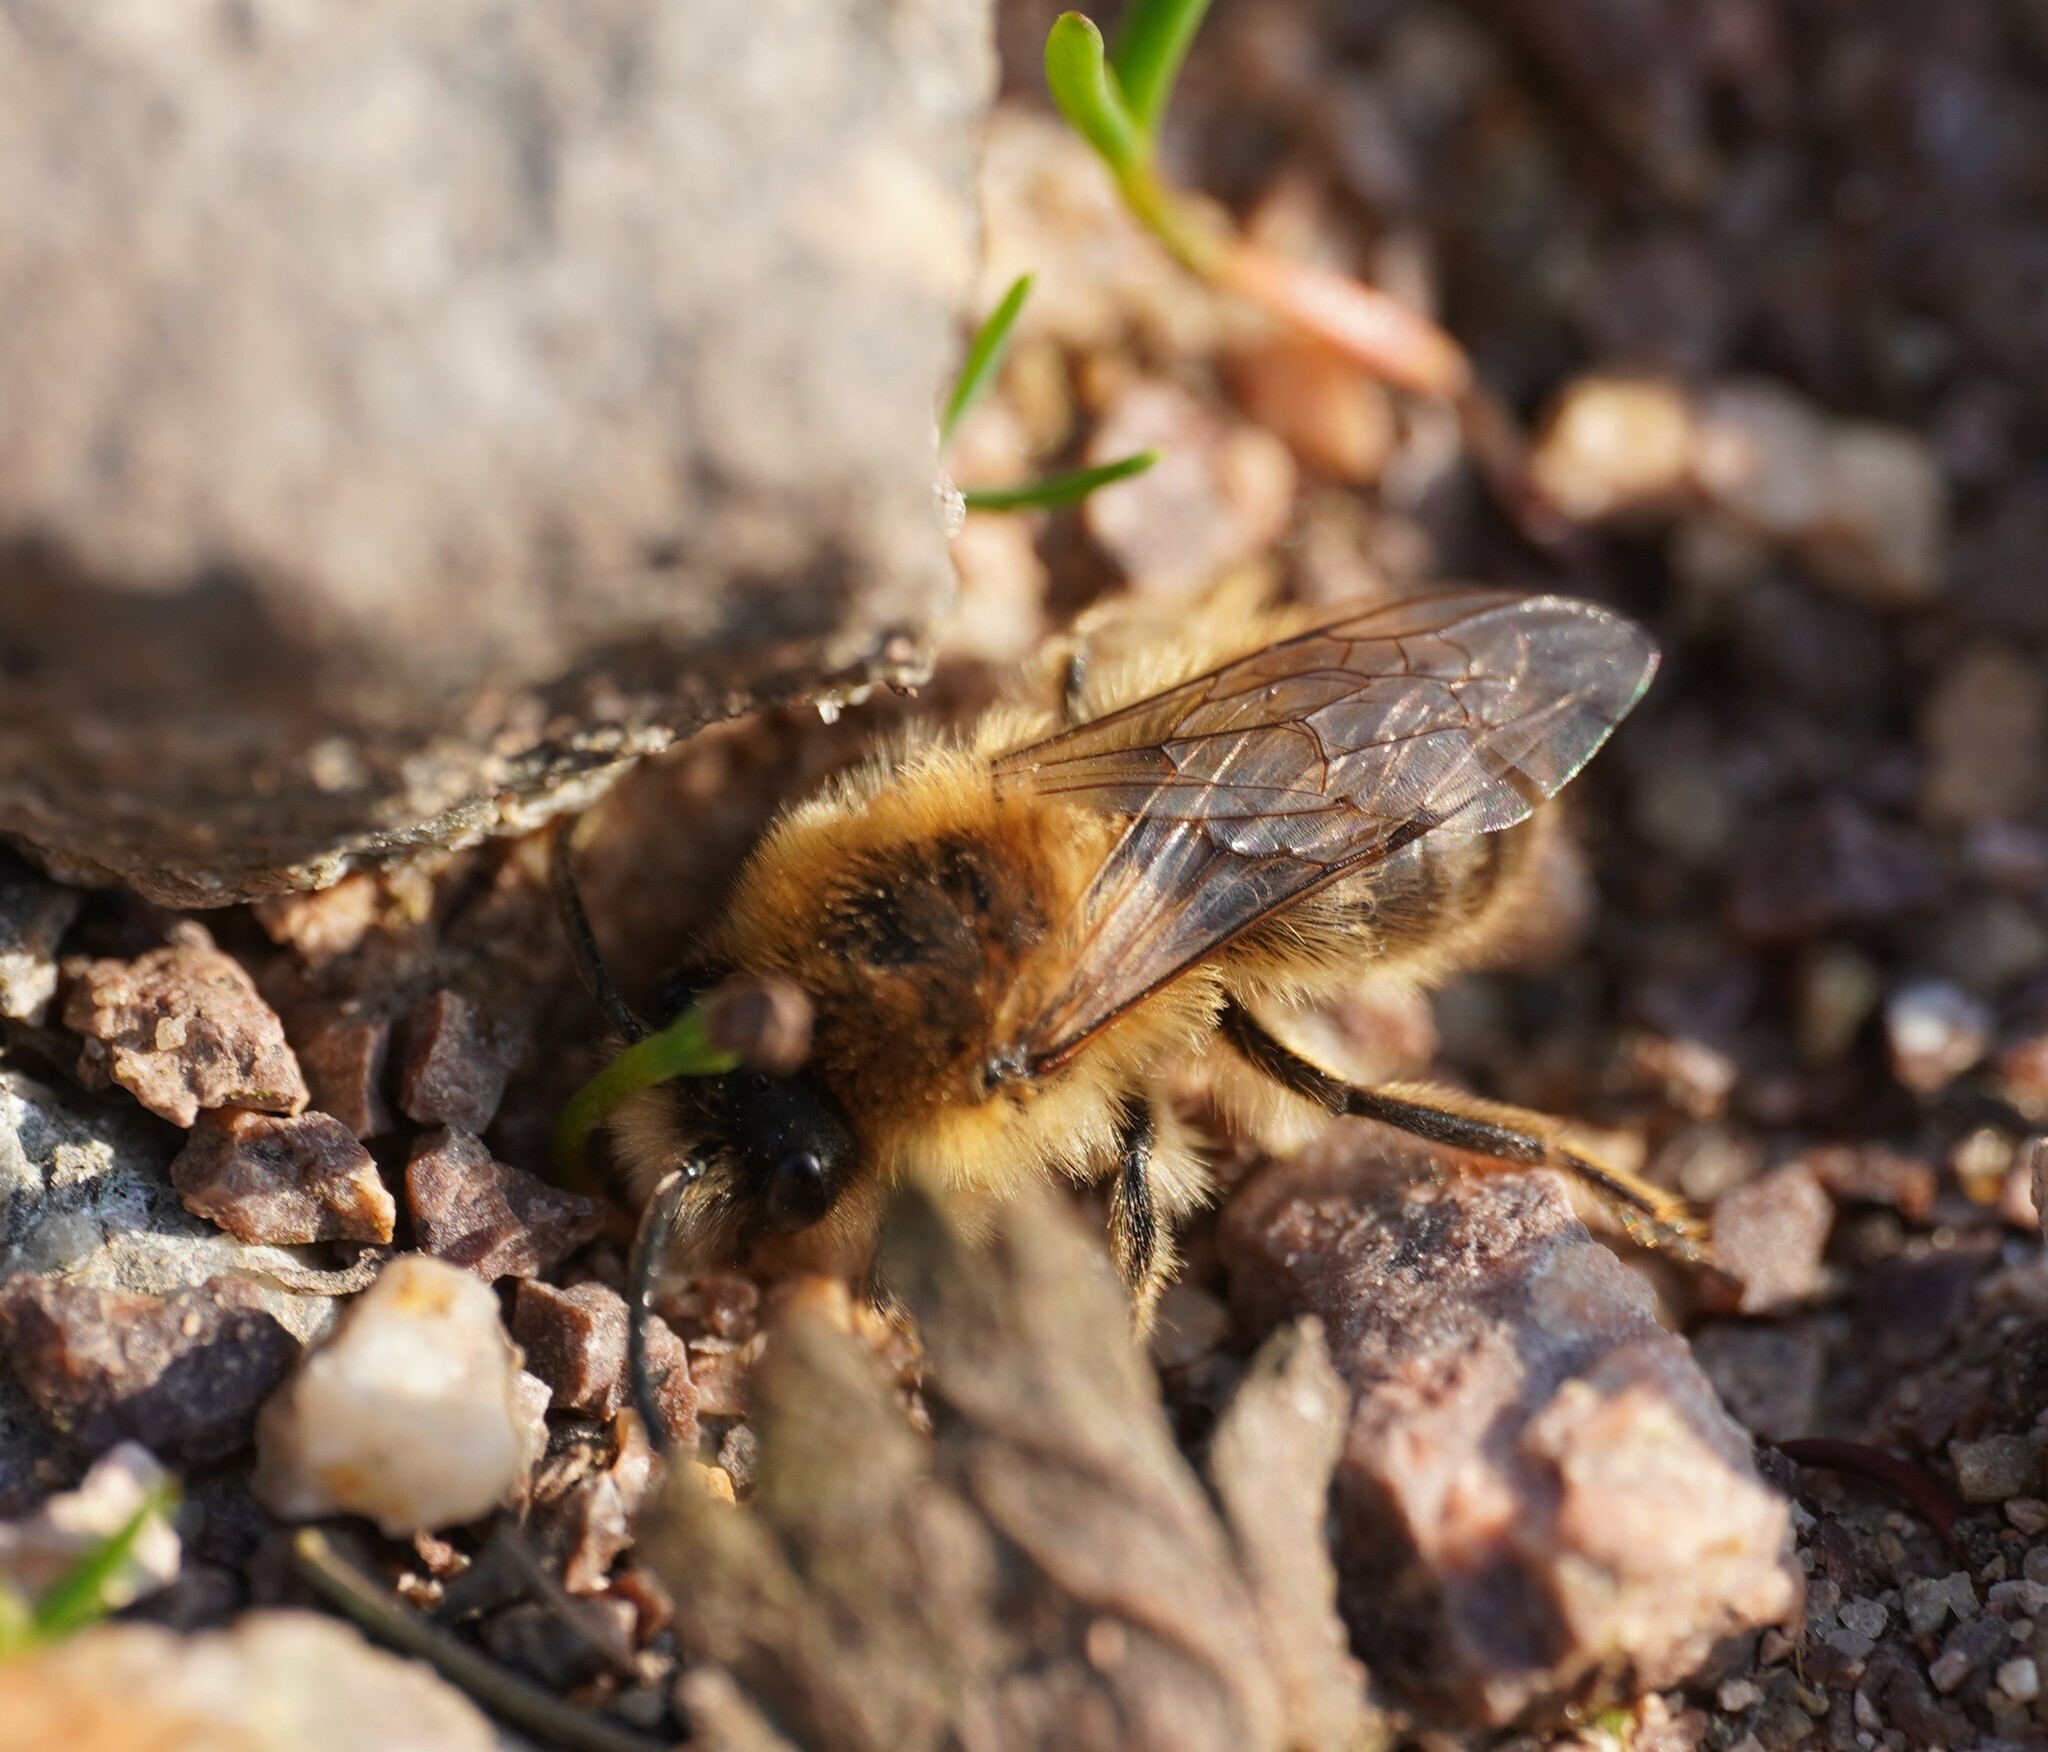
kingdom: Animalia
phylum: Arthropoda
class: Insecta
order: Hymenoptera
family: Colletidae
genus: Colletes
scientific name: Colletes cunicularius
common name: Early colletes
